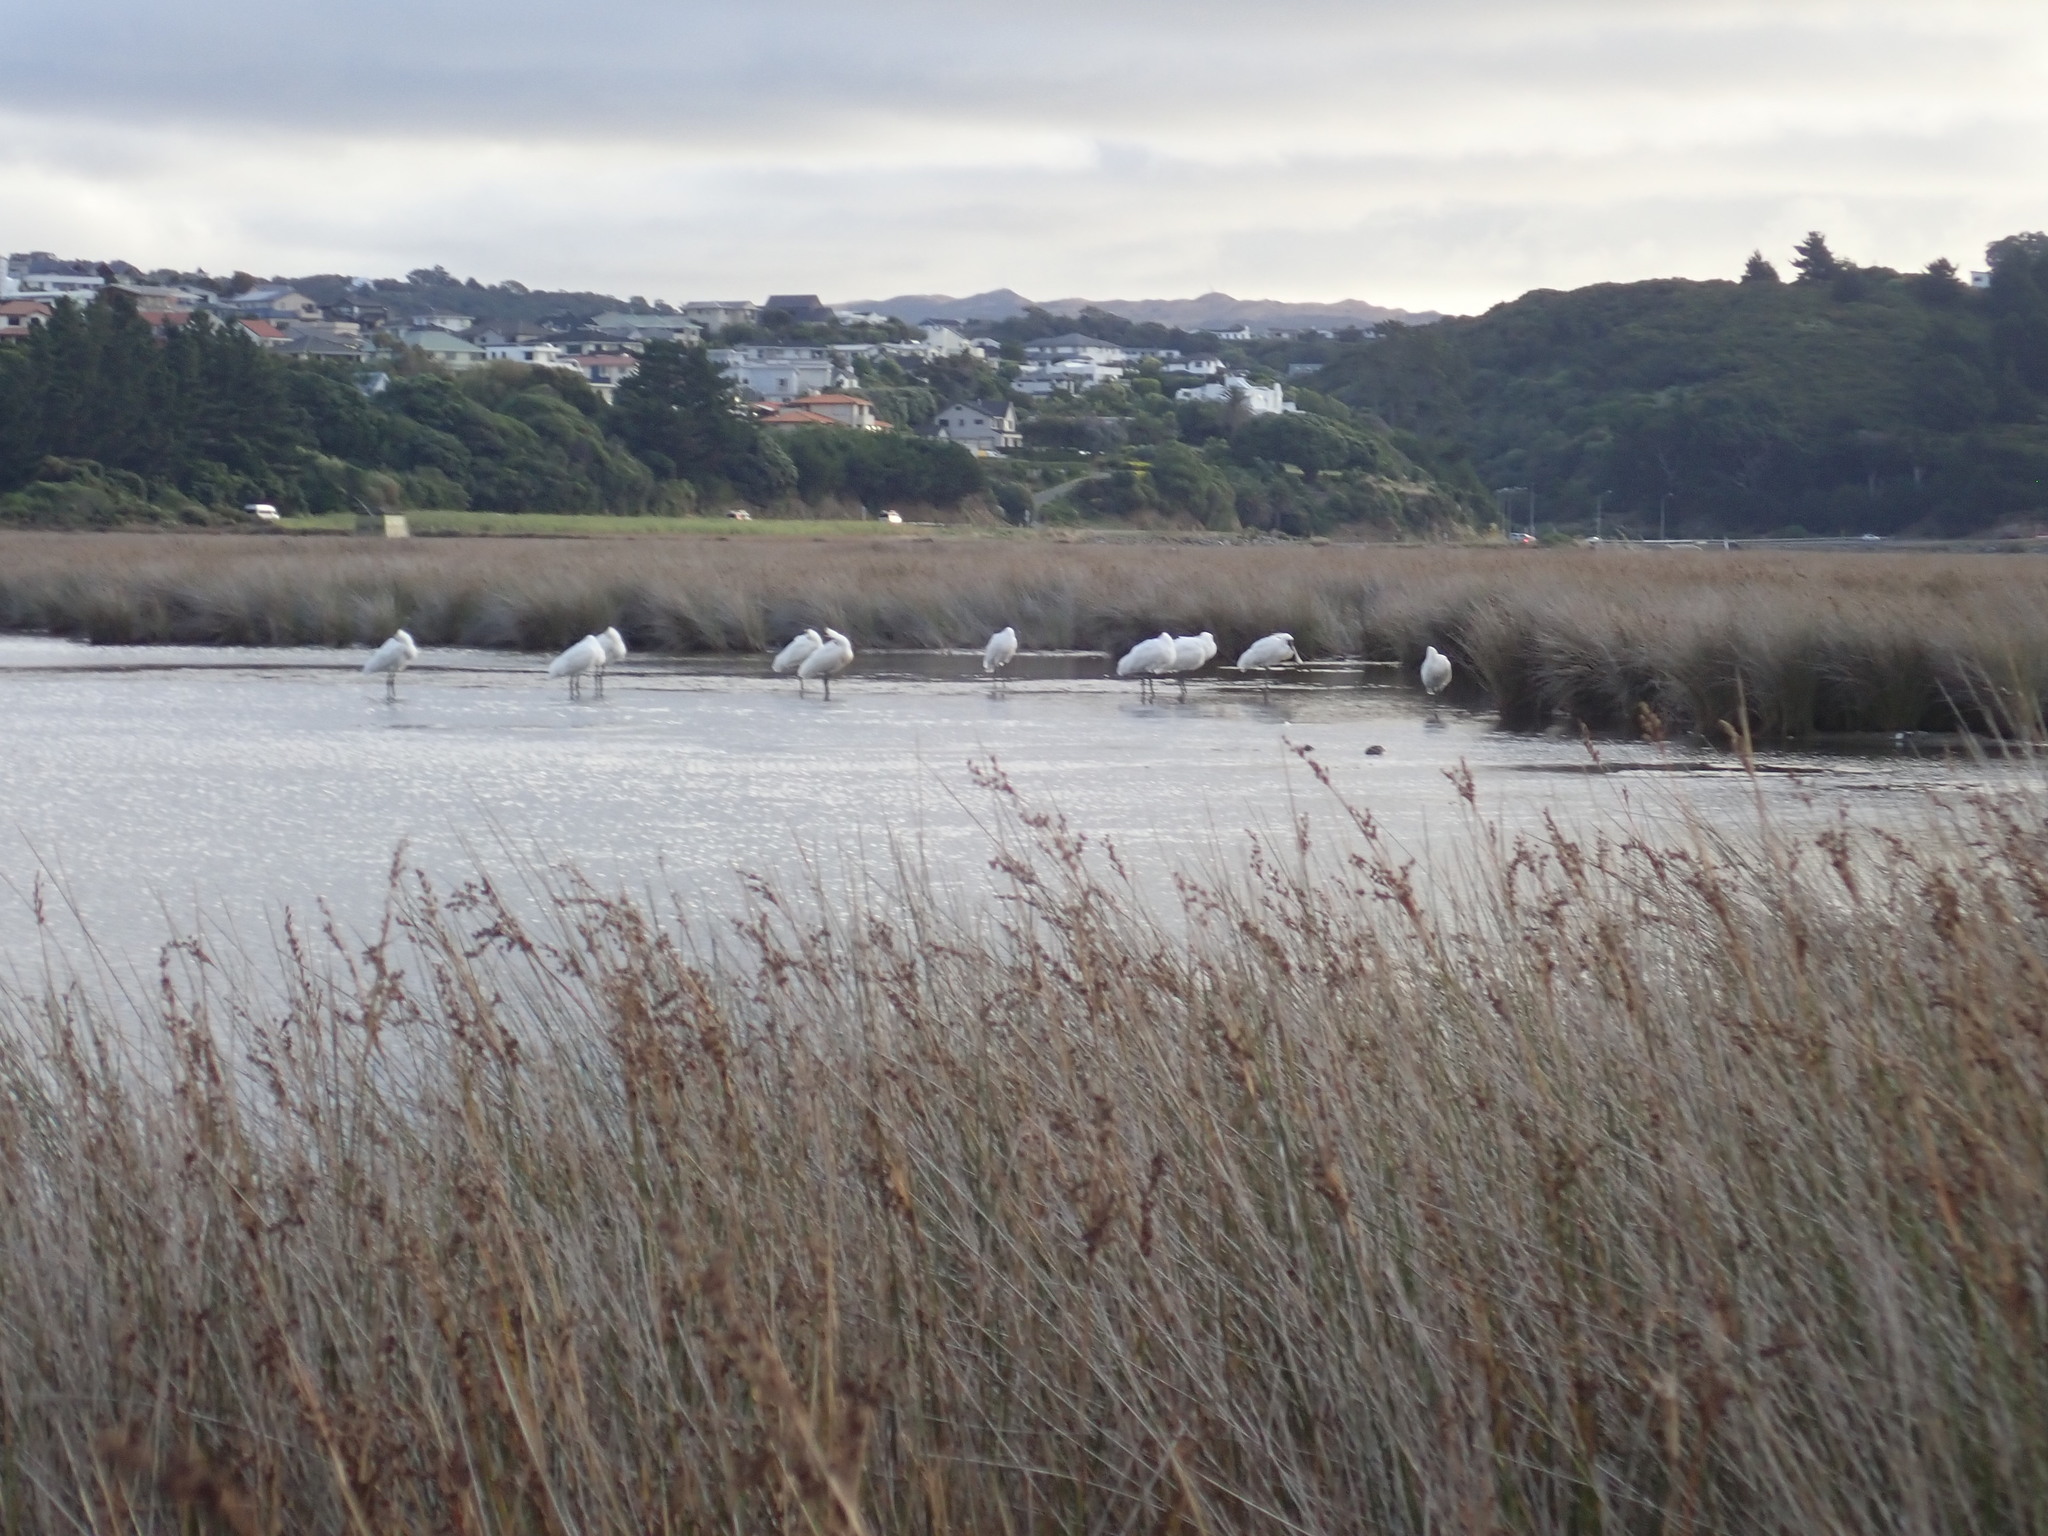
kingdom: Animalia
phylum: Chordata
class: Aves
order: Pelecaniformes
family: Threskiornithidae
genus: Platalea
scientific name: Platalea regia
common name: Royal spoonbill
